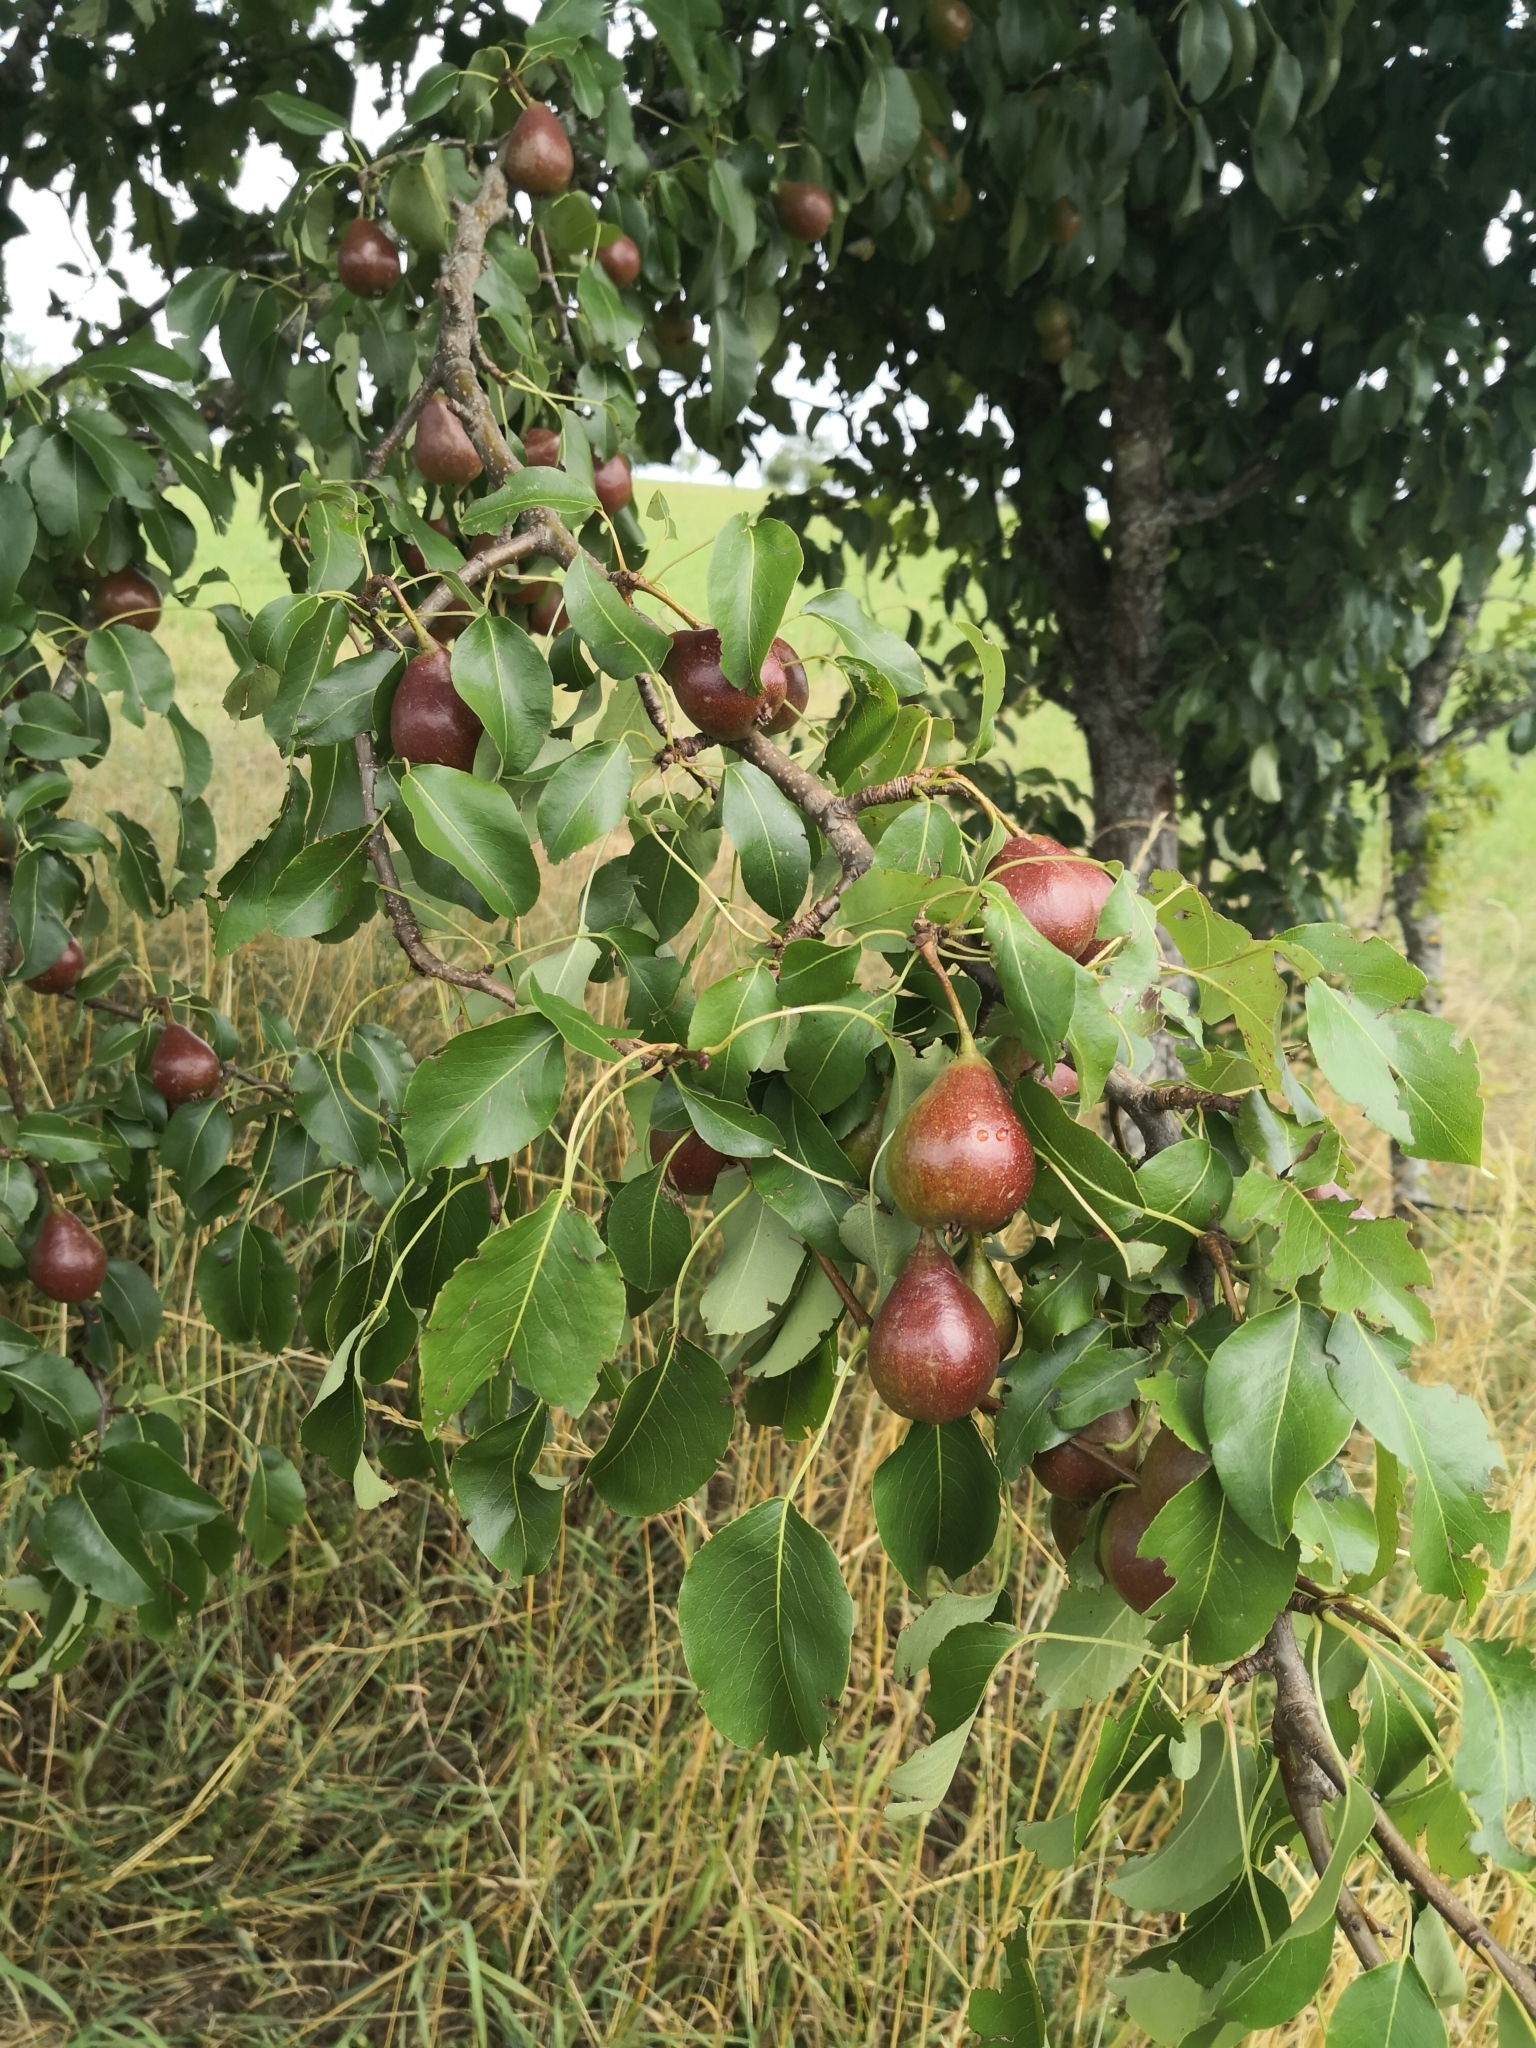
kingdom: Plantae
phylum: Tracheophyta
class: Magnoliopsida
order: Rosales
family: Rosaceae
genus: Pyrus
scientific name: Pyrus communis
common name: Pear
